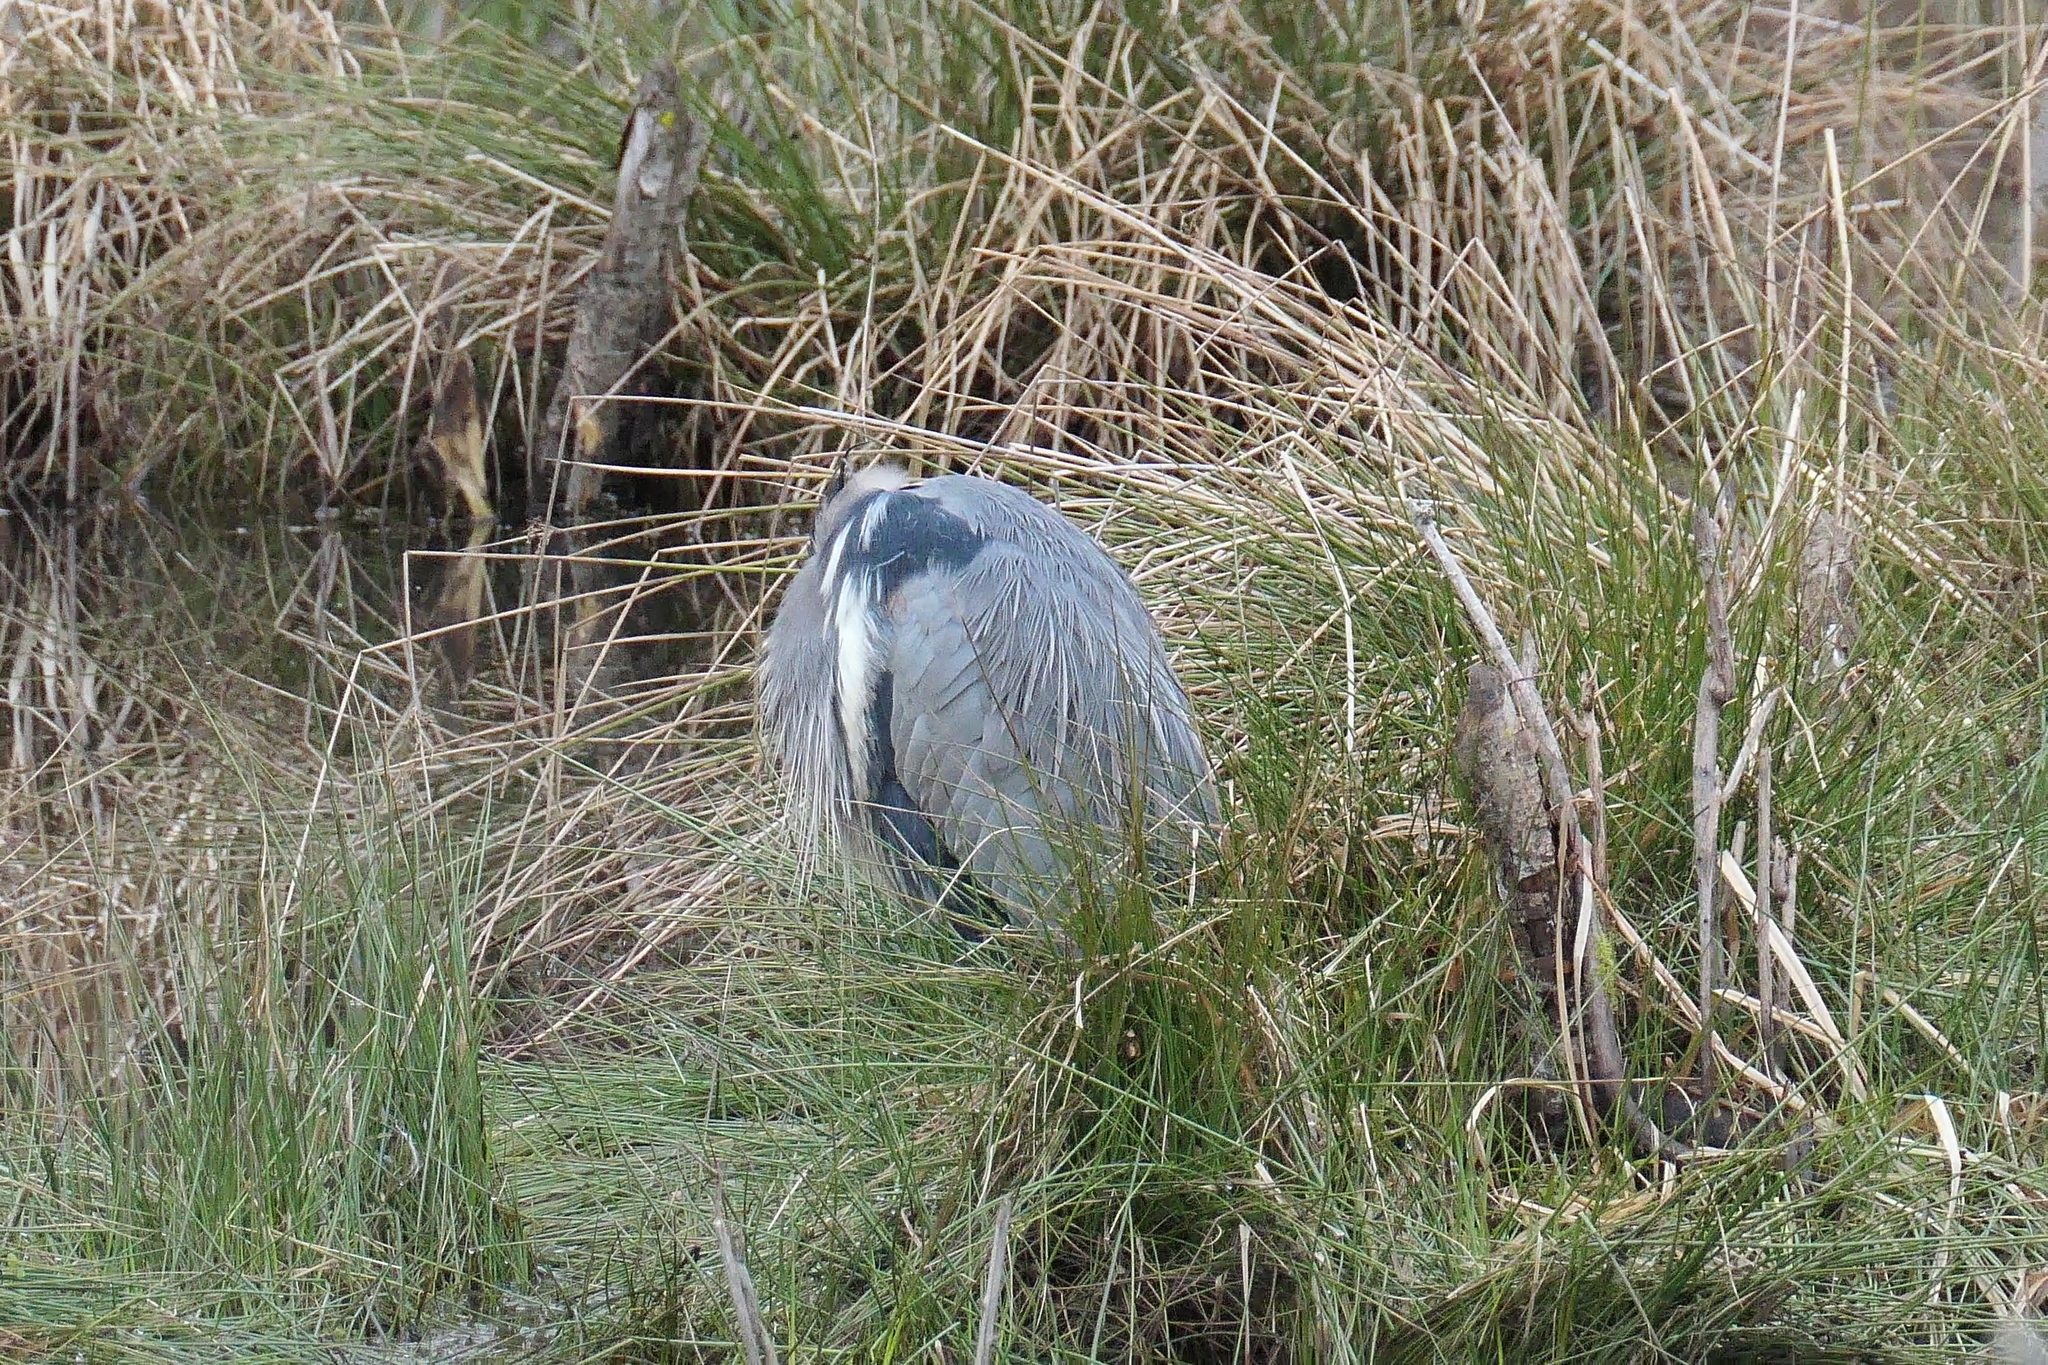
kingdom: Animalia
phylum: Chordata
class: Aves
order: Pelecaniformes
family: Ardeidae
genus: Ardea
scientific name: Ardea herodias
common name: Great blue heron
